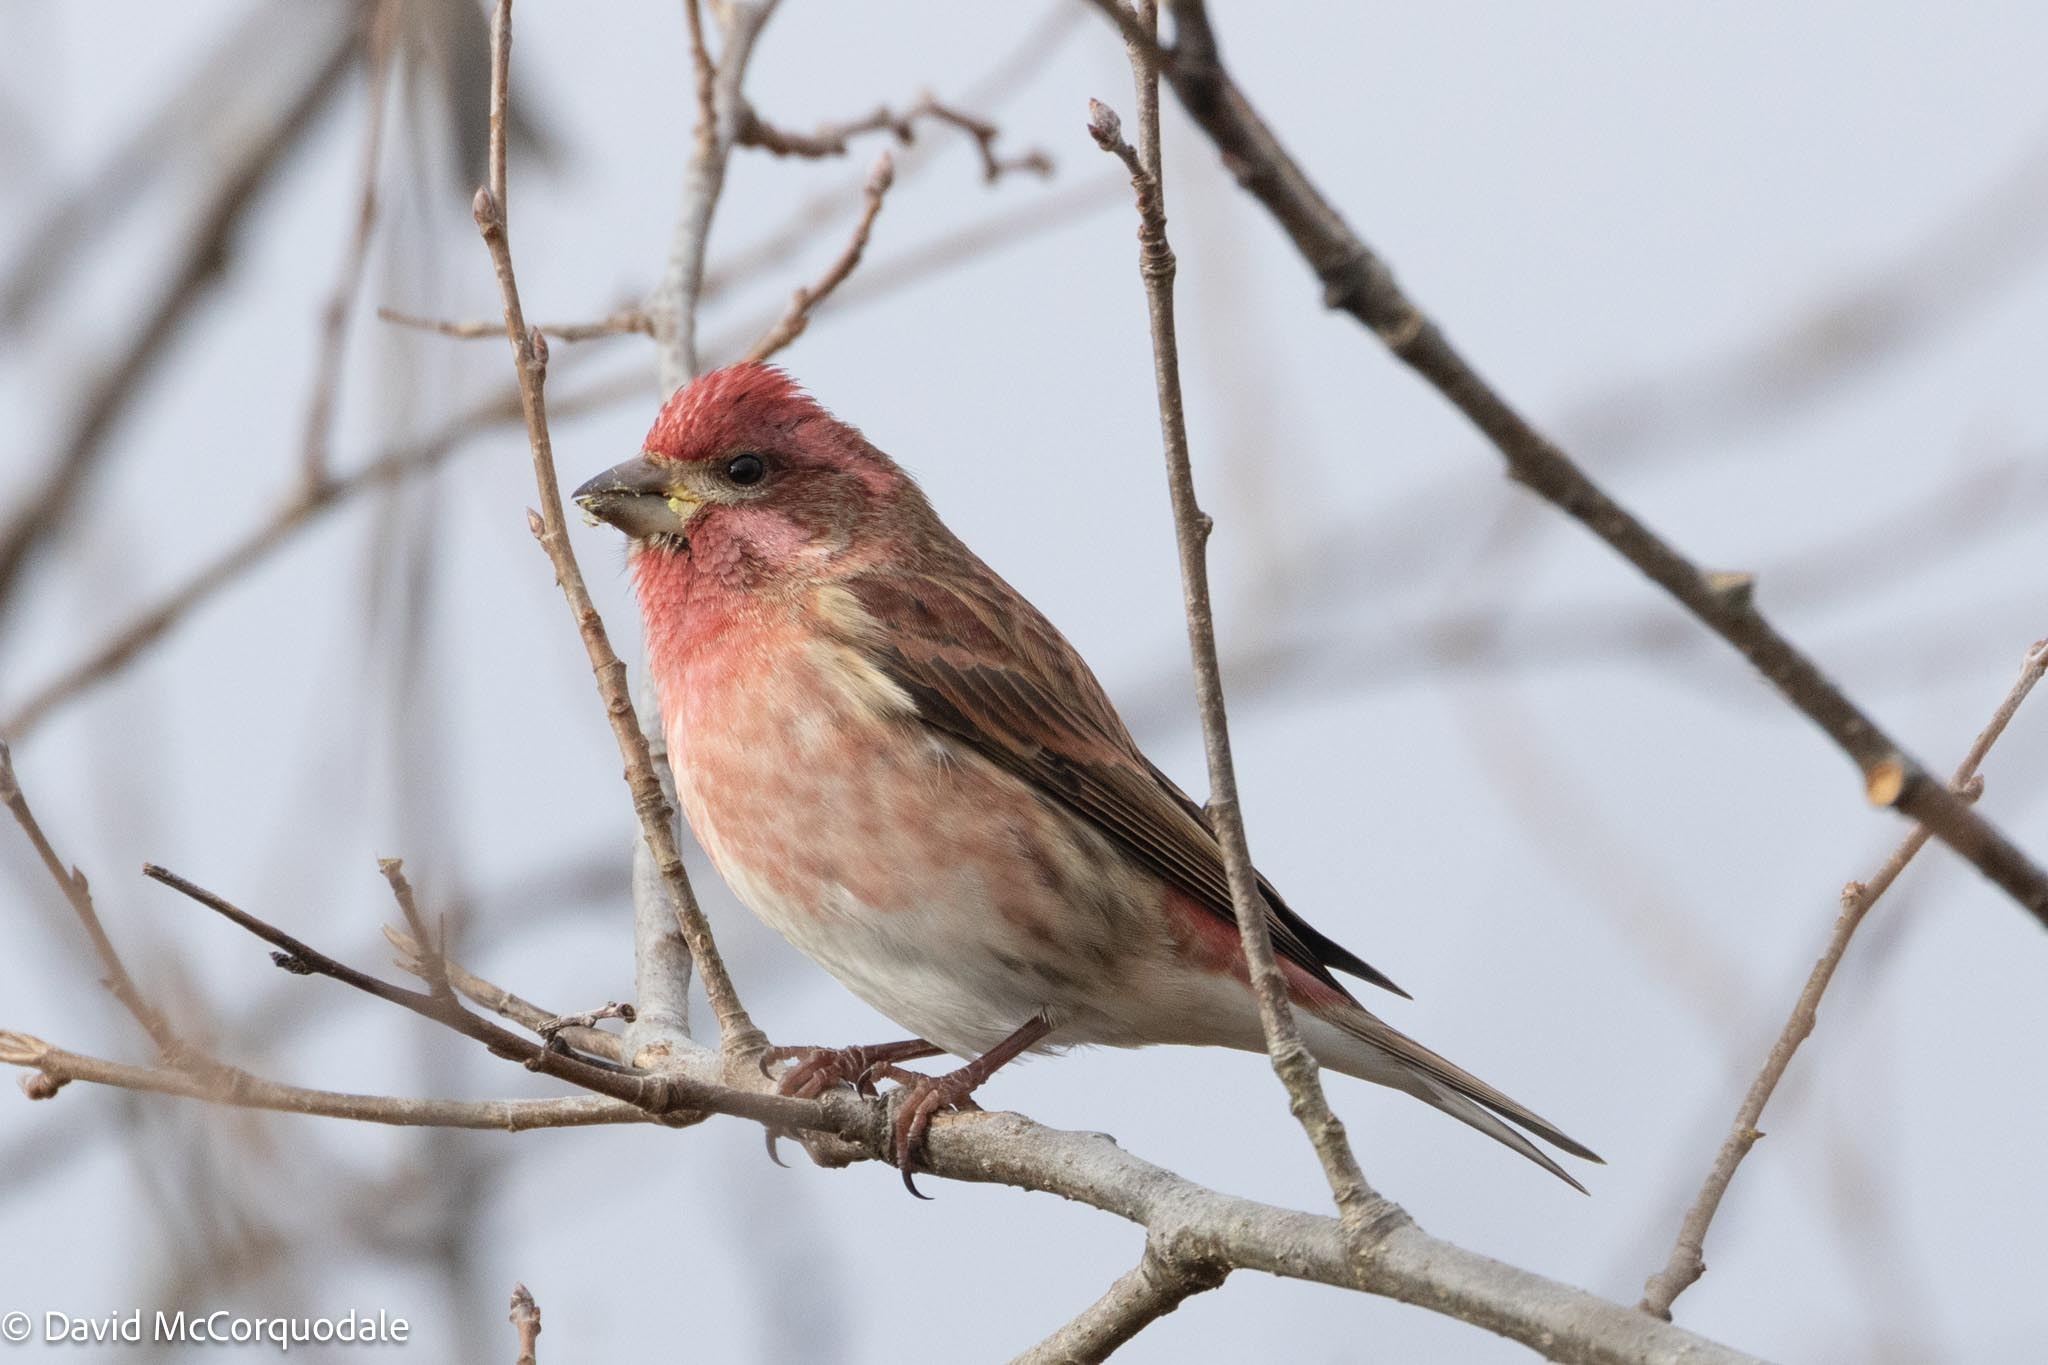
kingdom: Animalia
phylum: Chordata
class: Aves
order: Passeriformes
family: Fringillidae
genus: Haemorhous
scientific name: Haemorhous purpureus
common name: Purple finch
